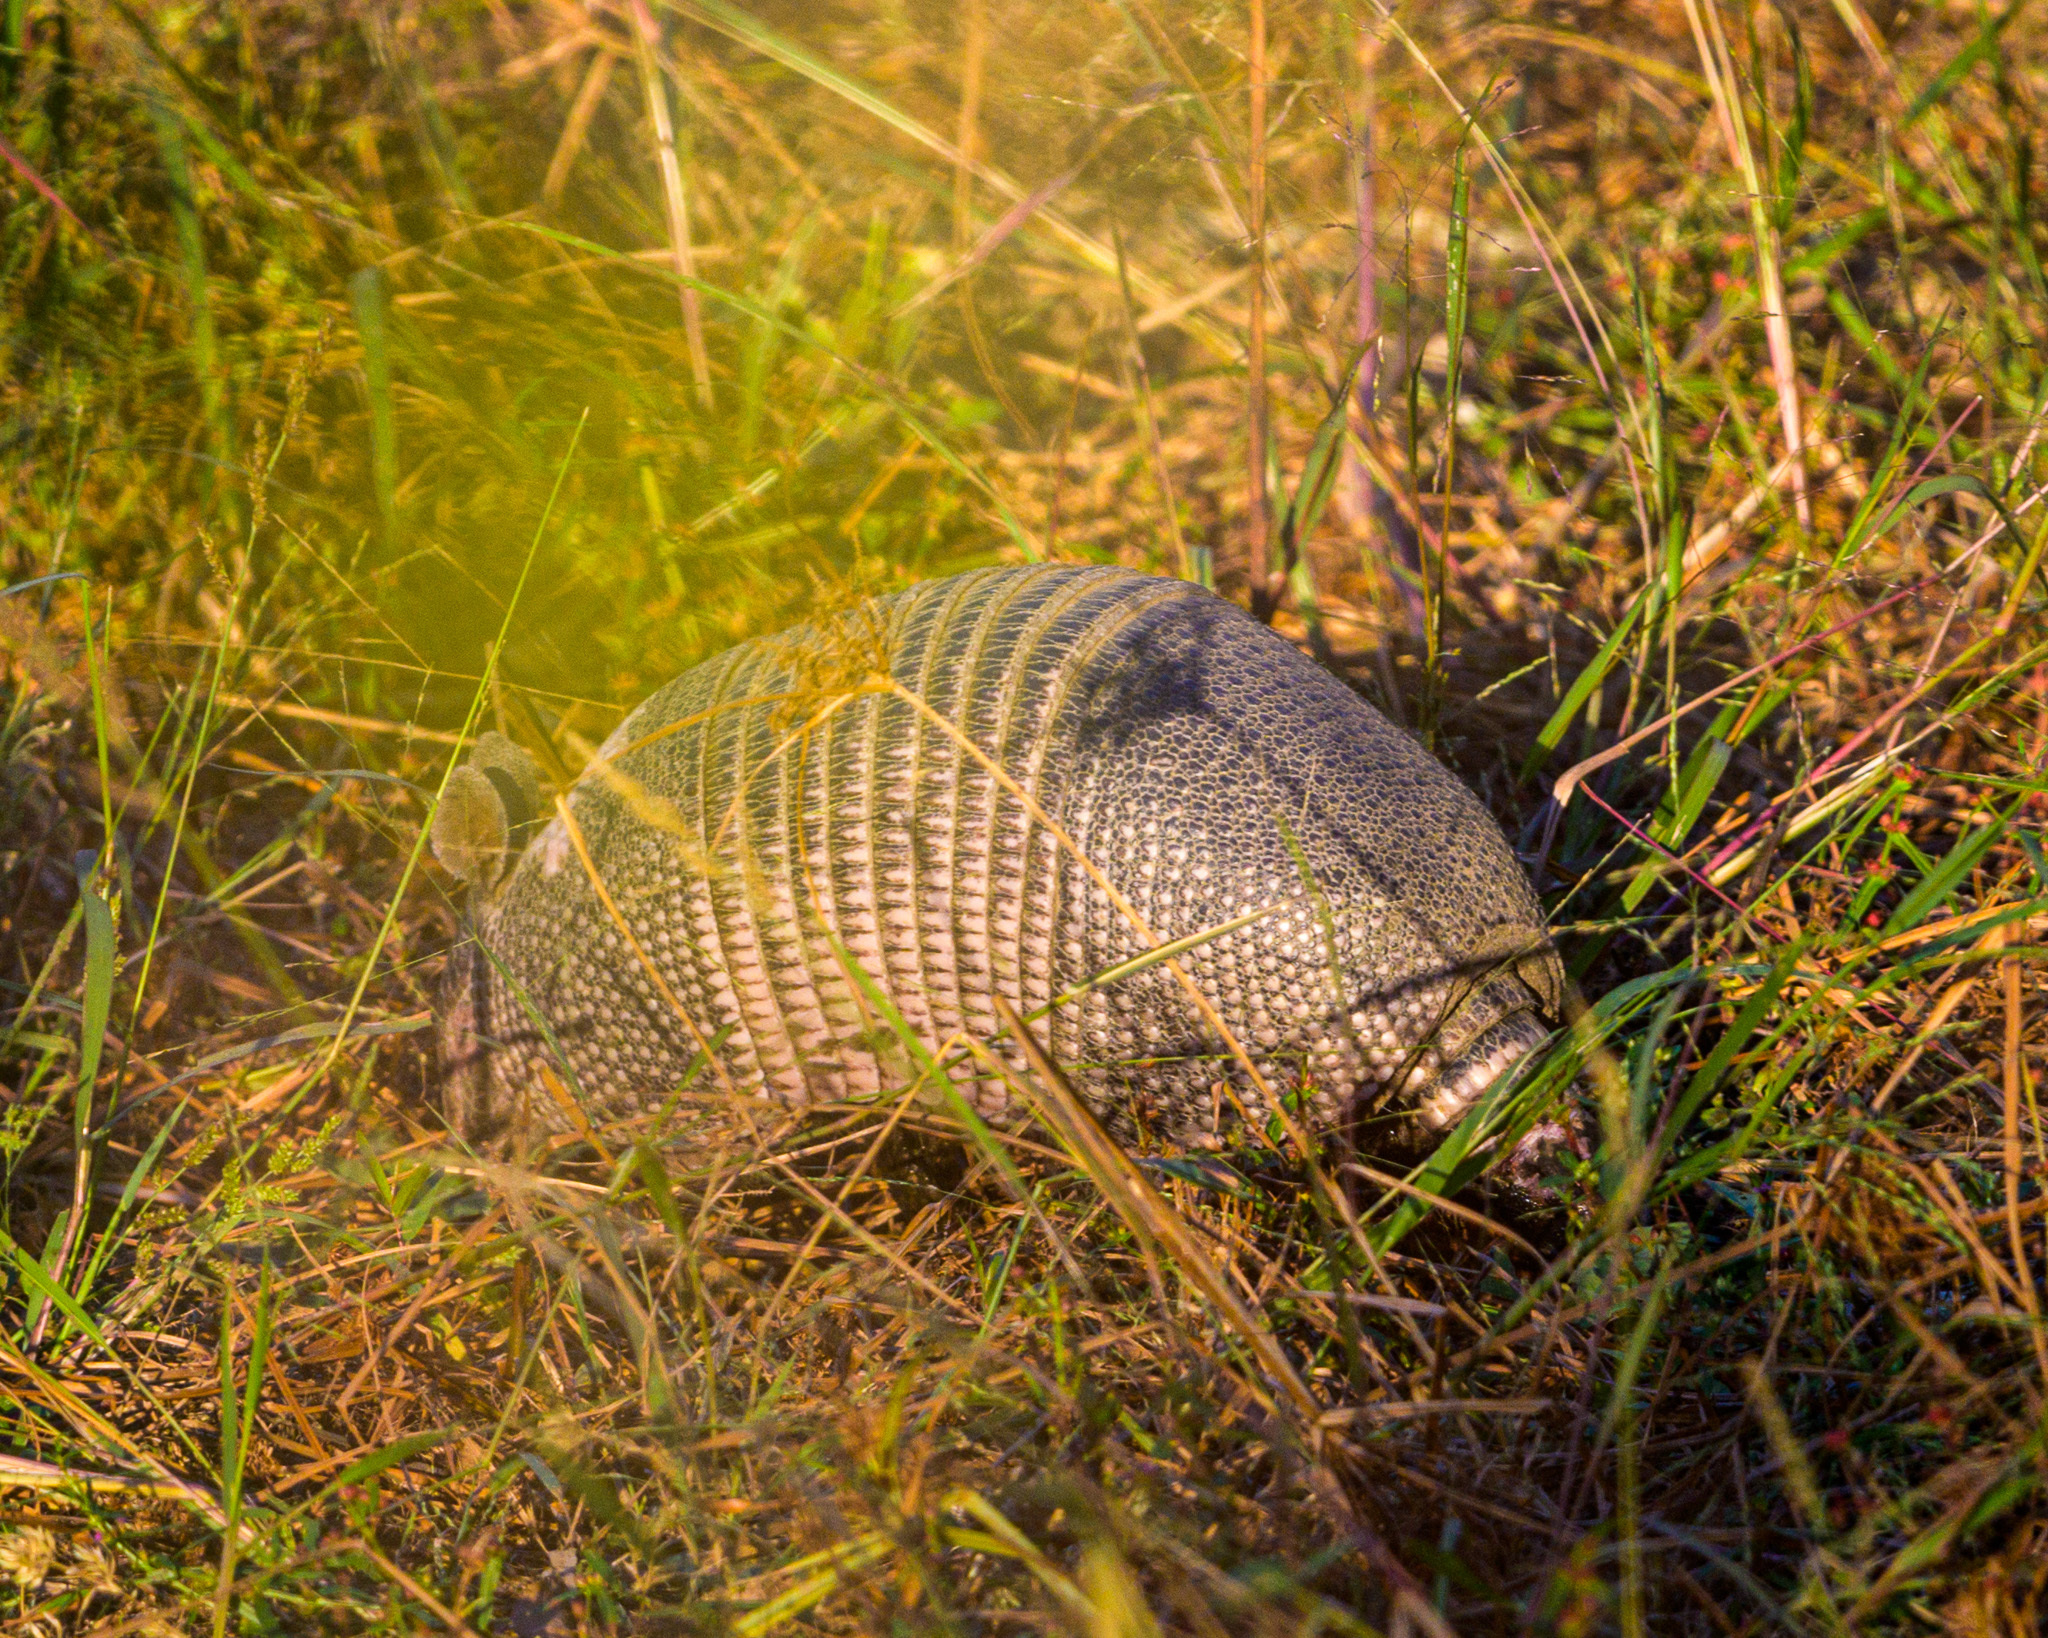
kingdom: Animalia
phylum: Chordata
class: Mammalia
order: Cingulata
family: Dasypodidae
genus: Dasypus
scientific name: Dasypus novemcinctus
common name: Nine-banded armadillo
